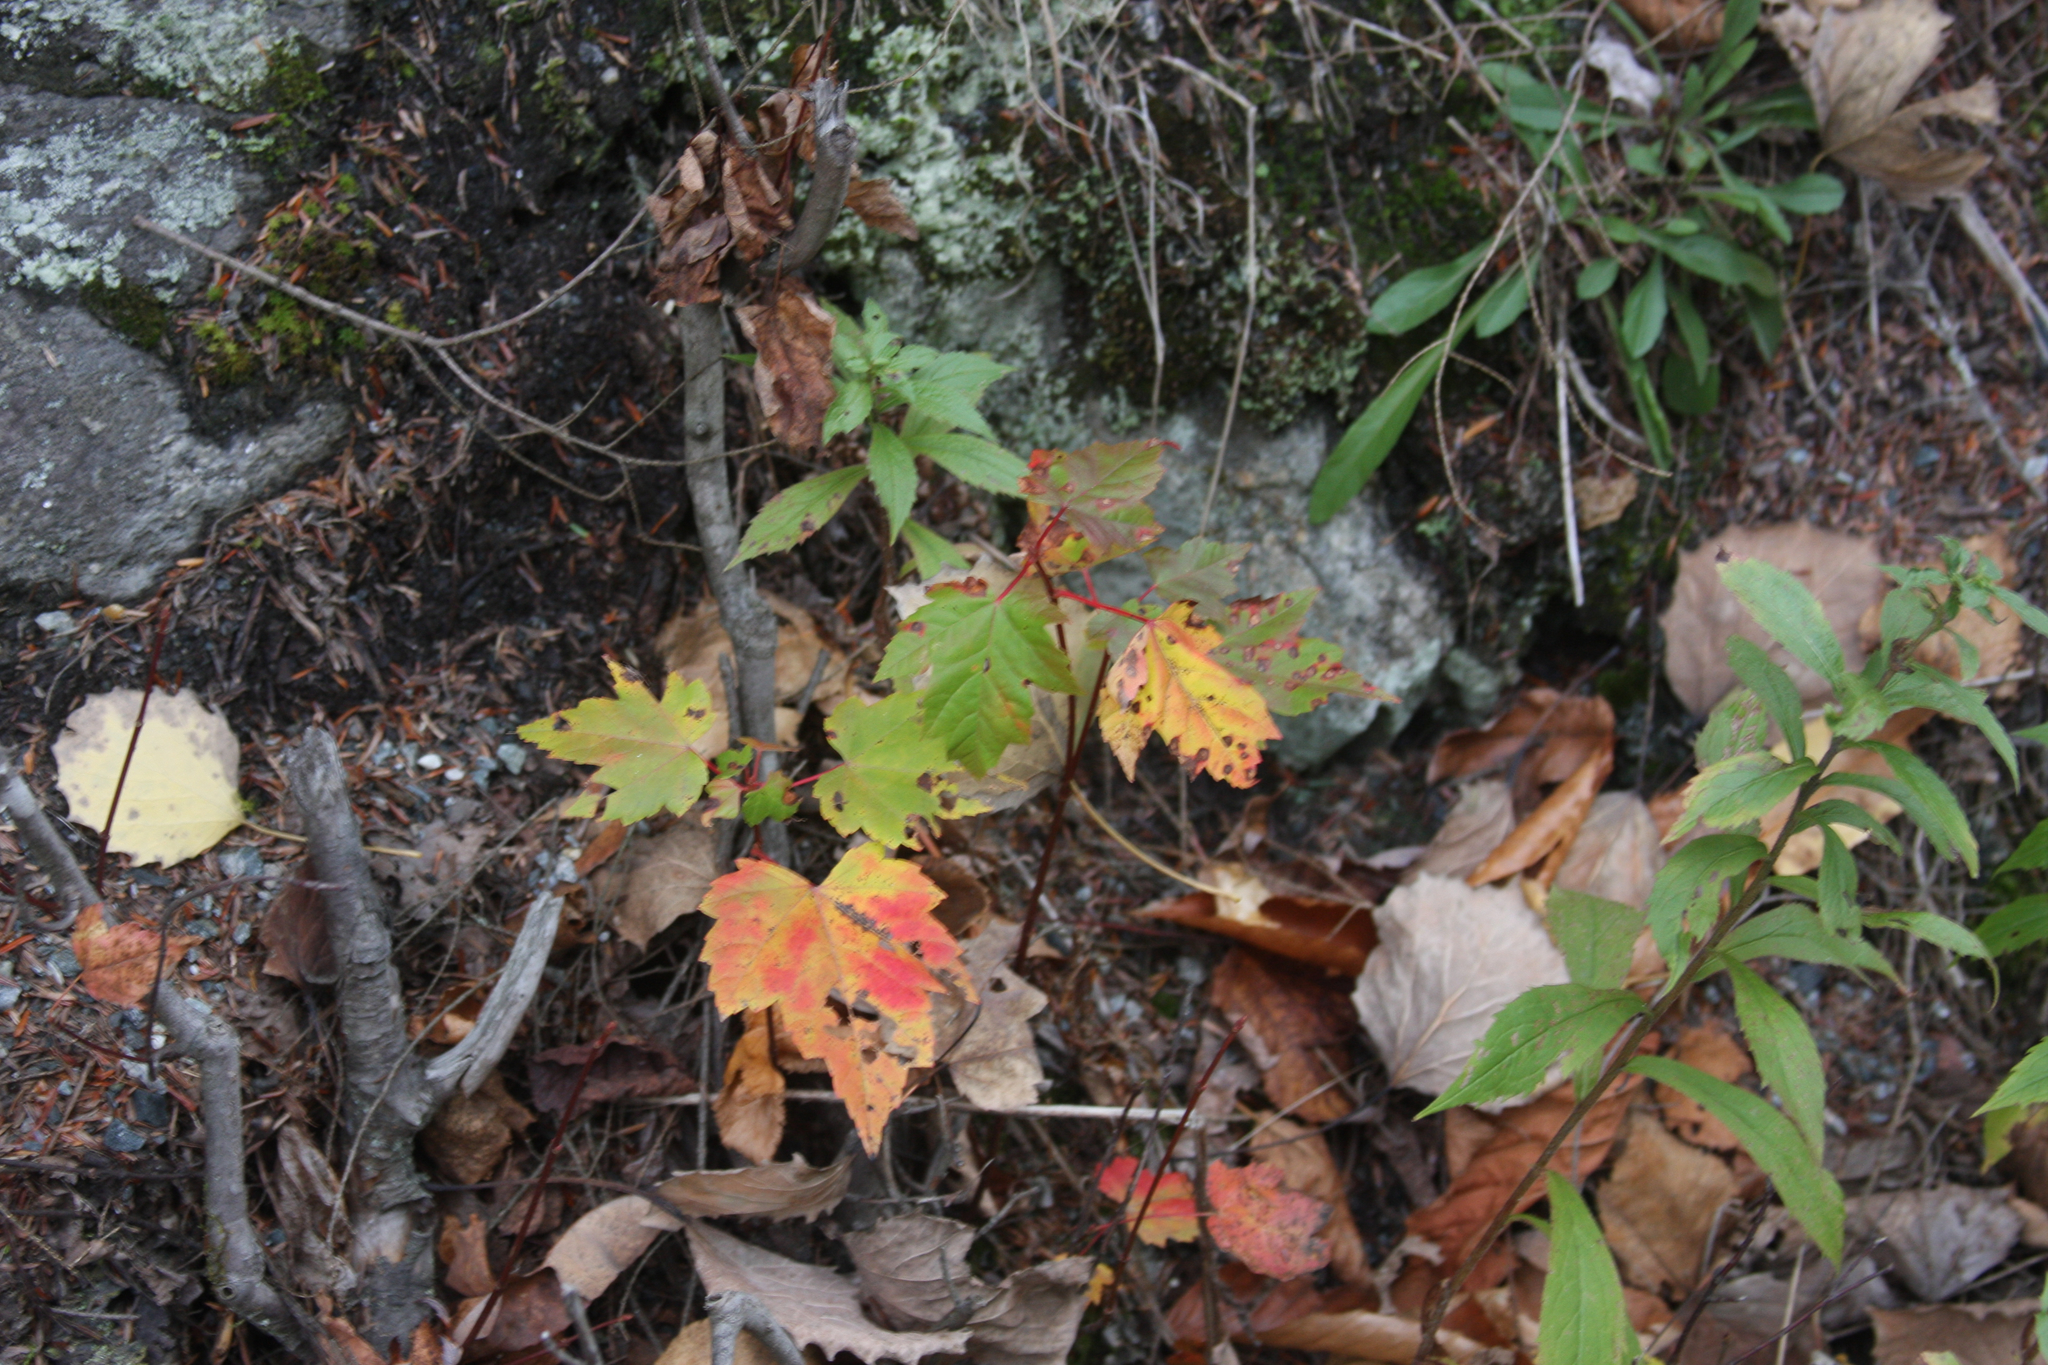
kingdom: Plantae
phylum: Tracheophyta
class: Magnoliopsida
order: Sapindales
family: Sapindaceae
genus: Acer
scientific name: Acer rubrum
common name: Red maple
